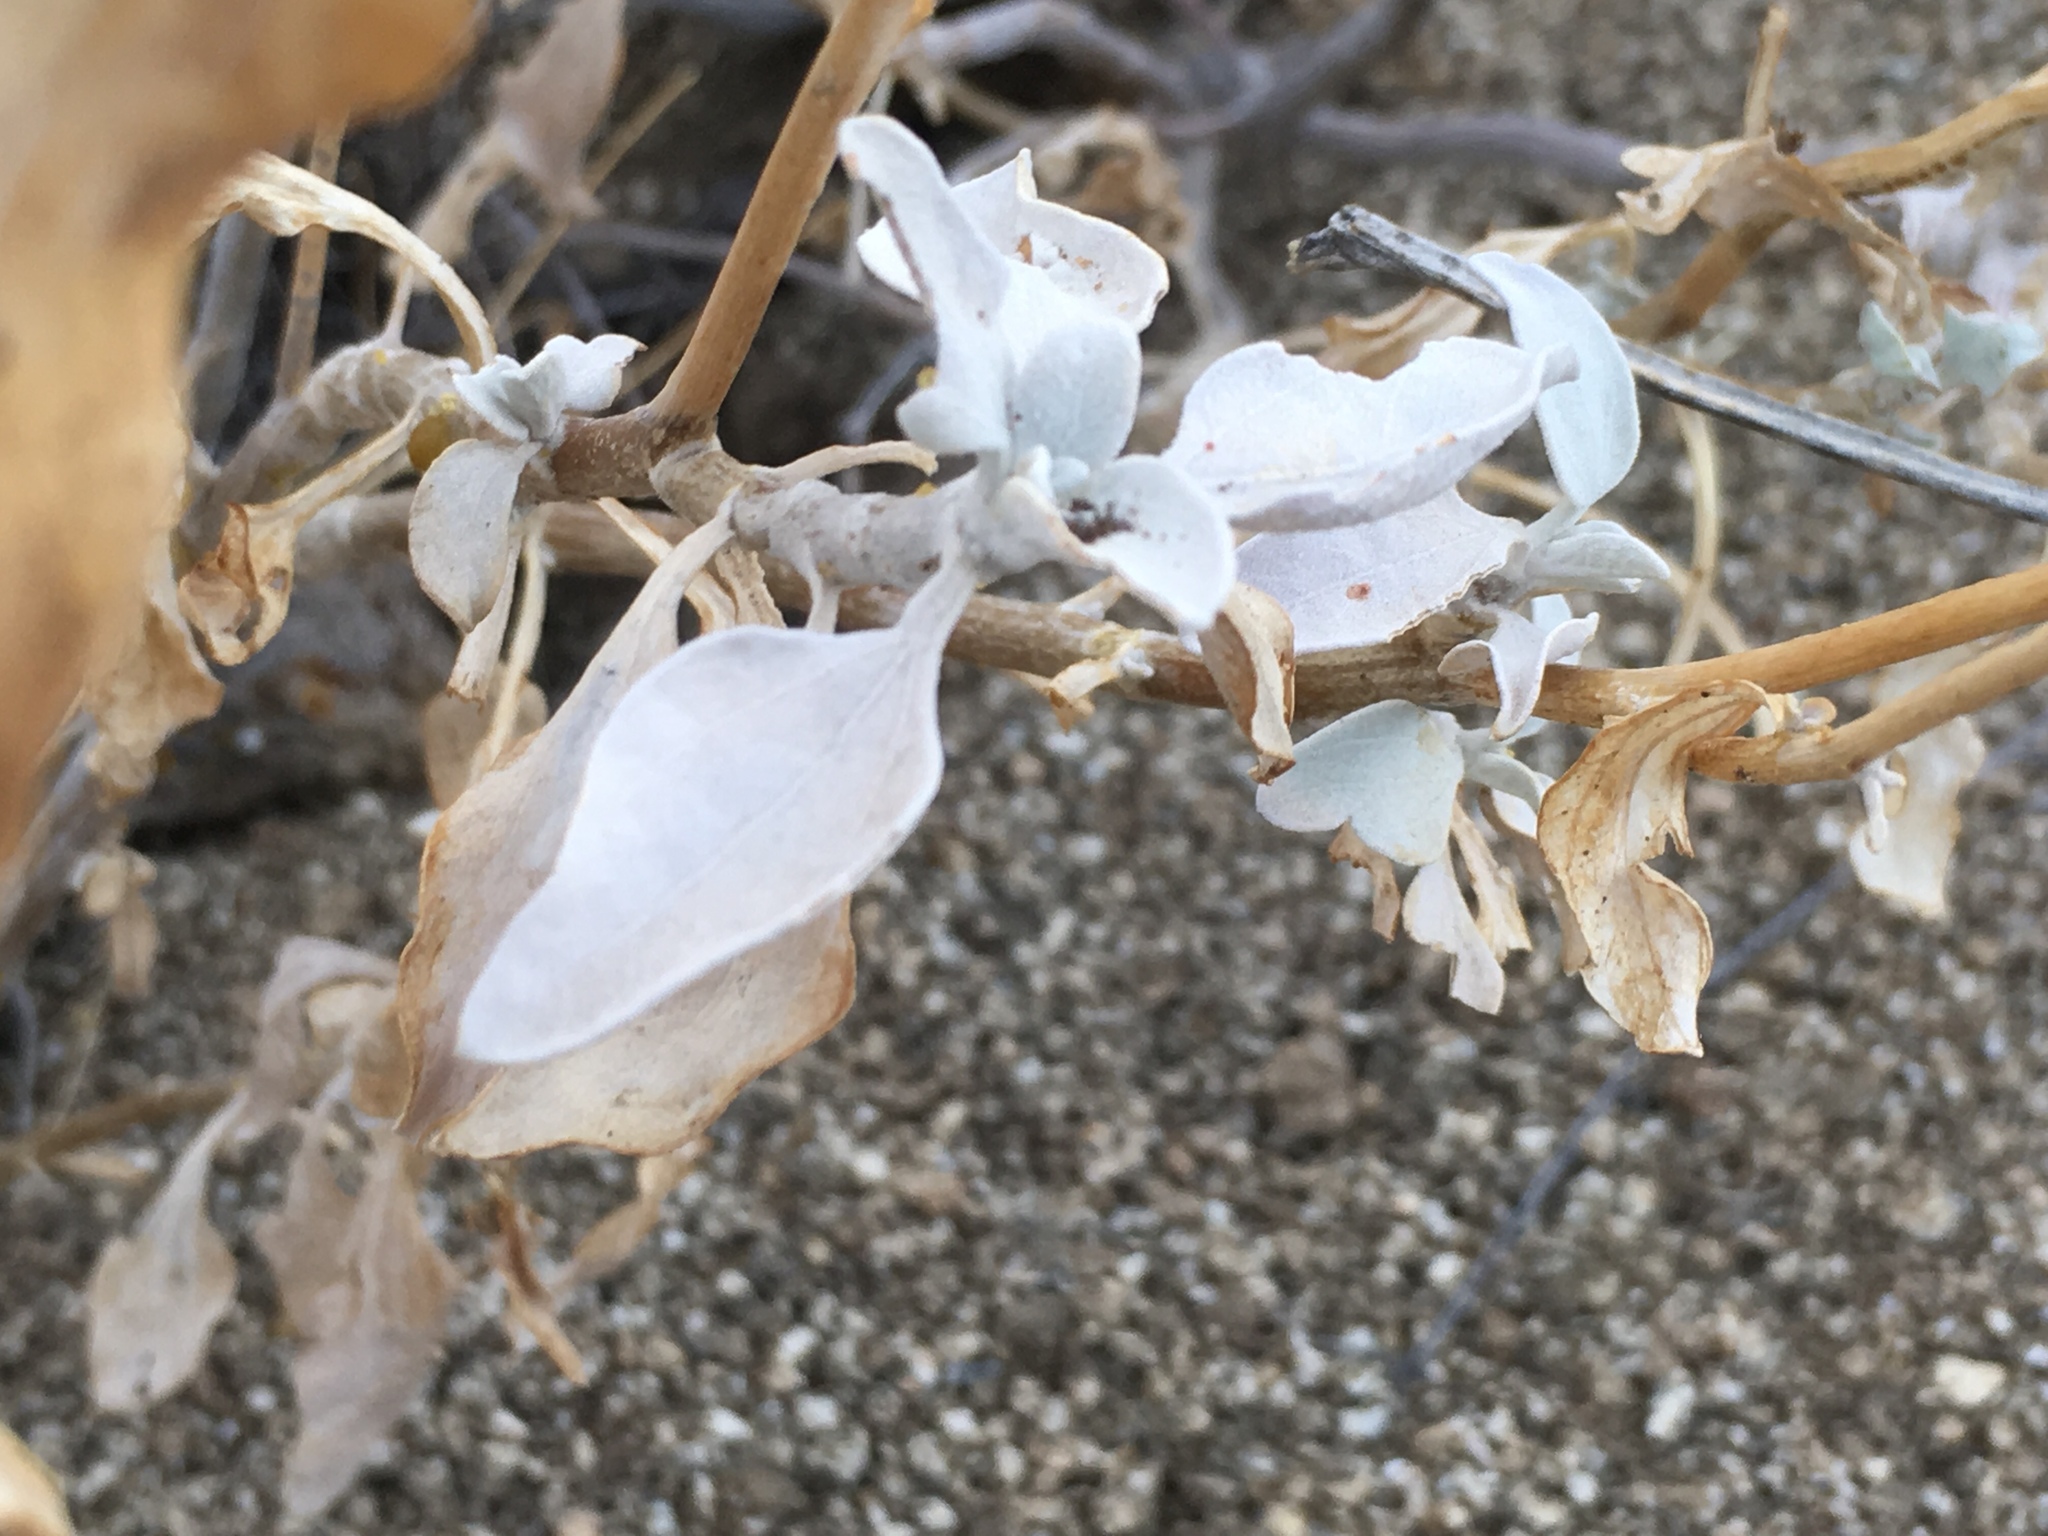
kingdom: Plantae
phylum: Tracheophyta
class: Magnoliopsida
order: Asterales
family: Asteraceae
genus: Encelia
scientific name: Encelia farinosa
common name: Brittlebush
